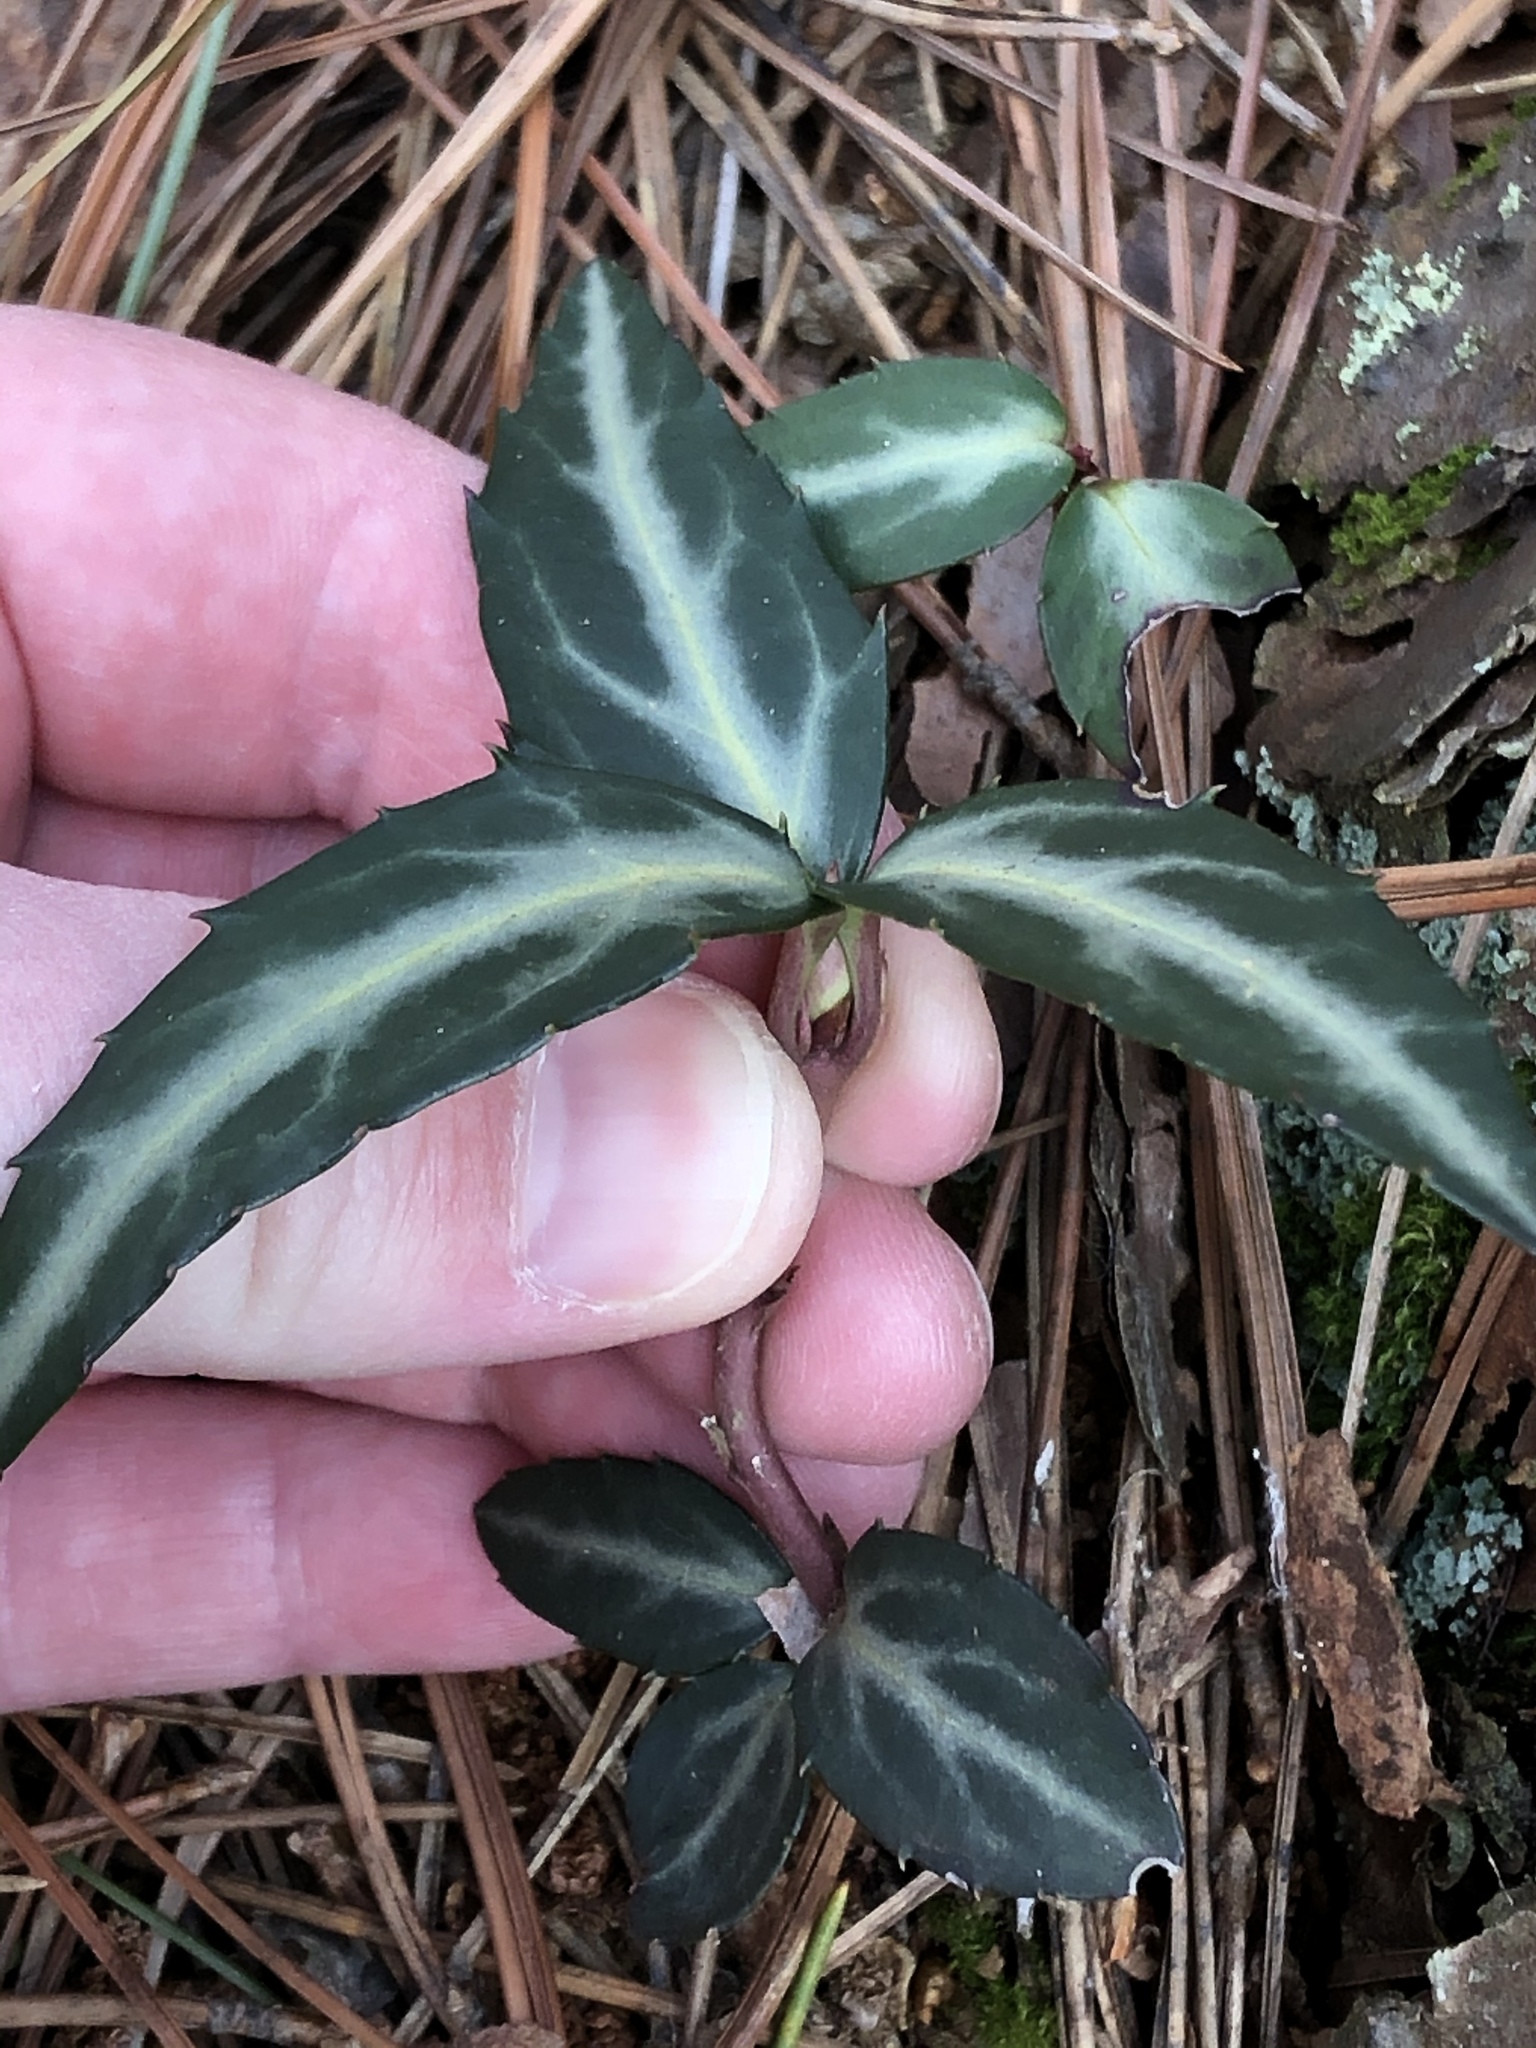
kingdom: Plantae
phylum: Tracheophyta
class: Magnoliopsida
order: Ericales
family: Ericaceae
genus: Chimaphila
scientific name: Chimaphila maculata
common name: Spotted pipsissewa
